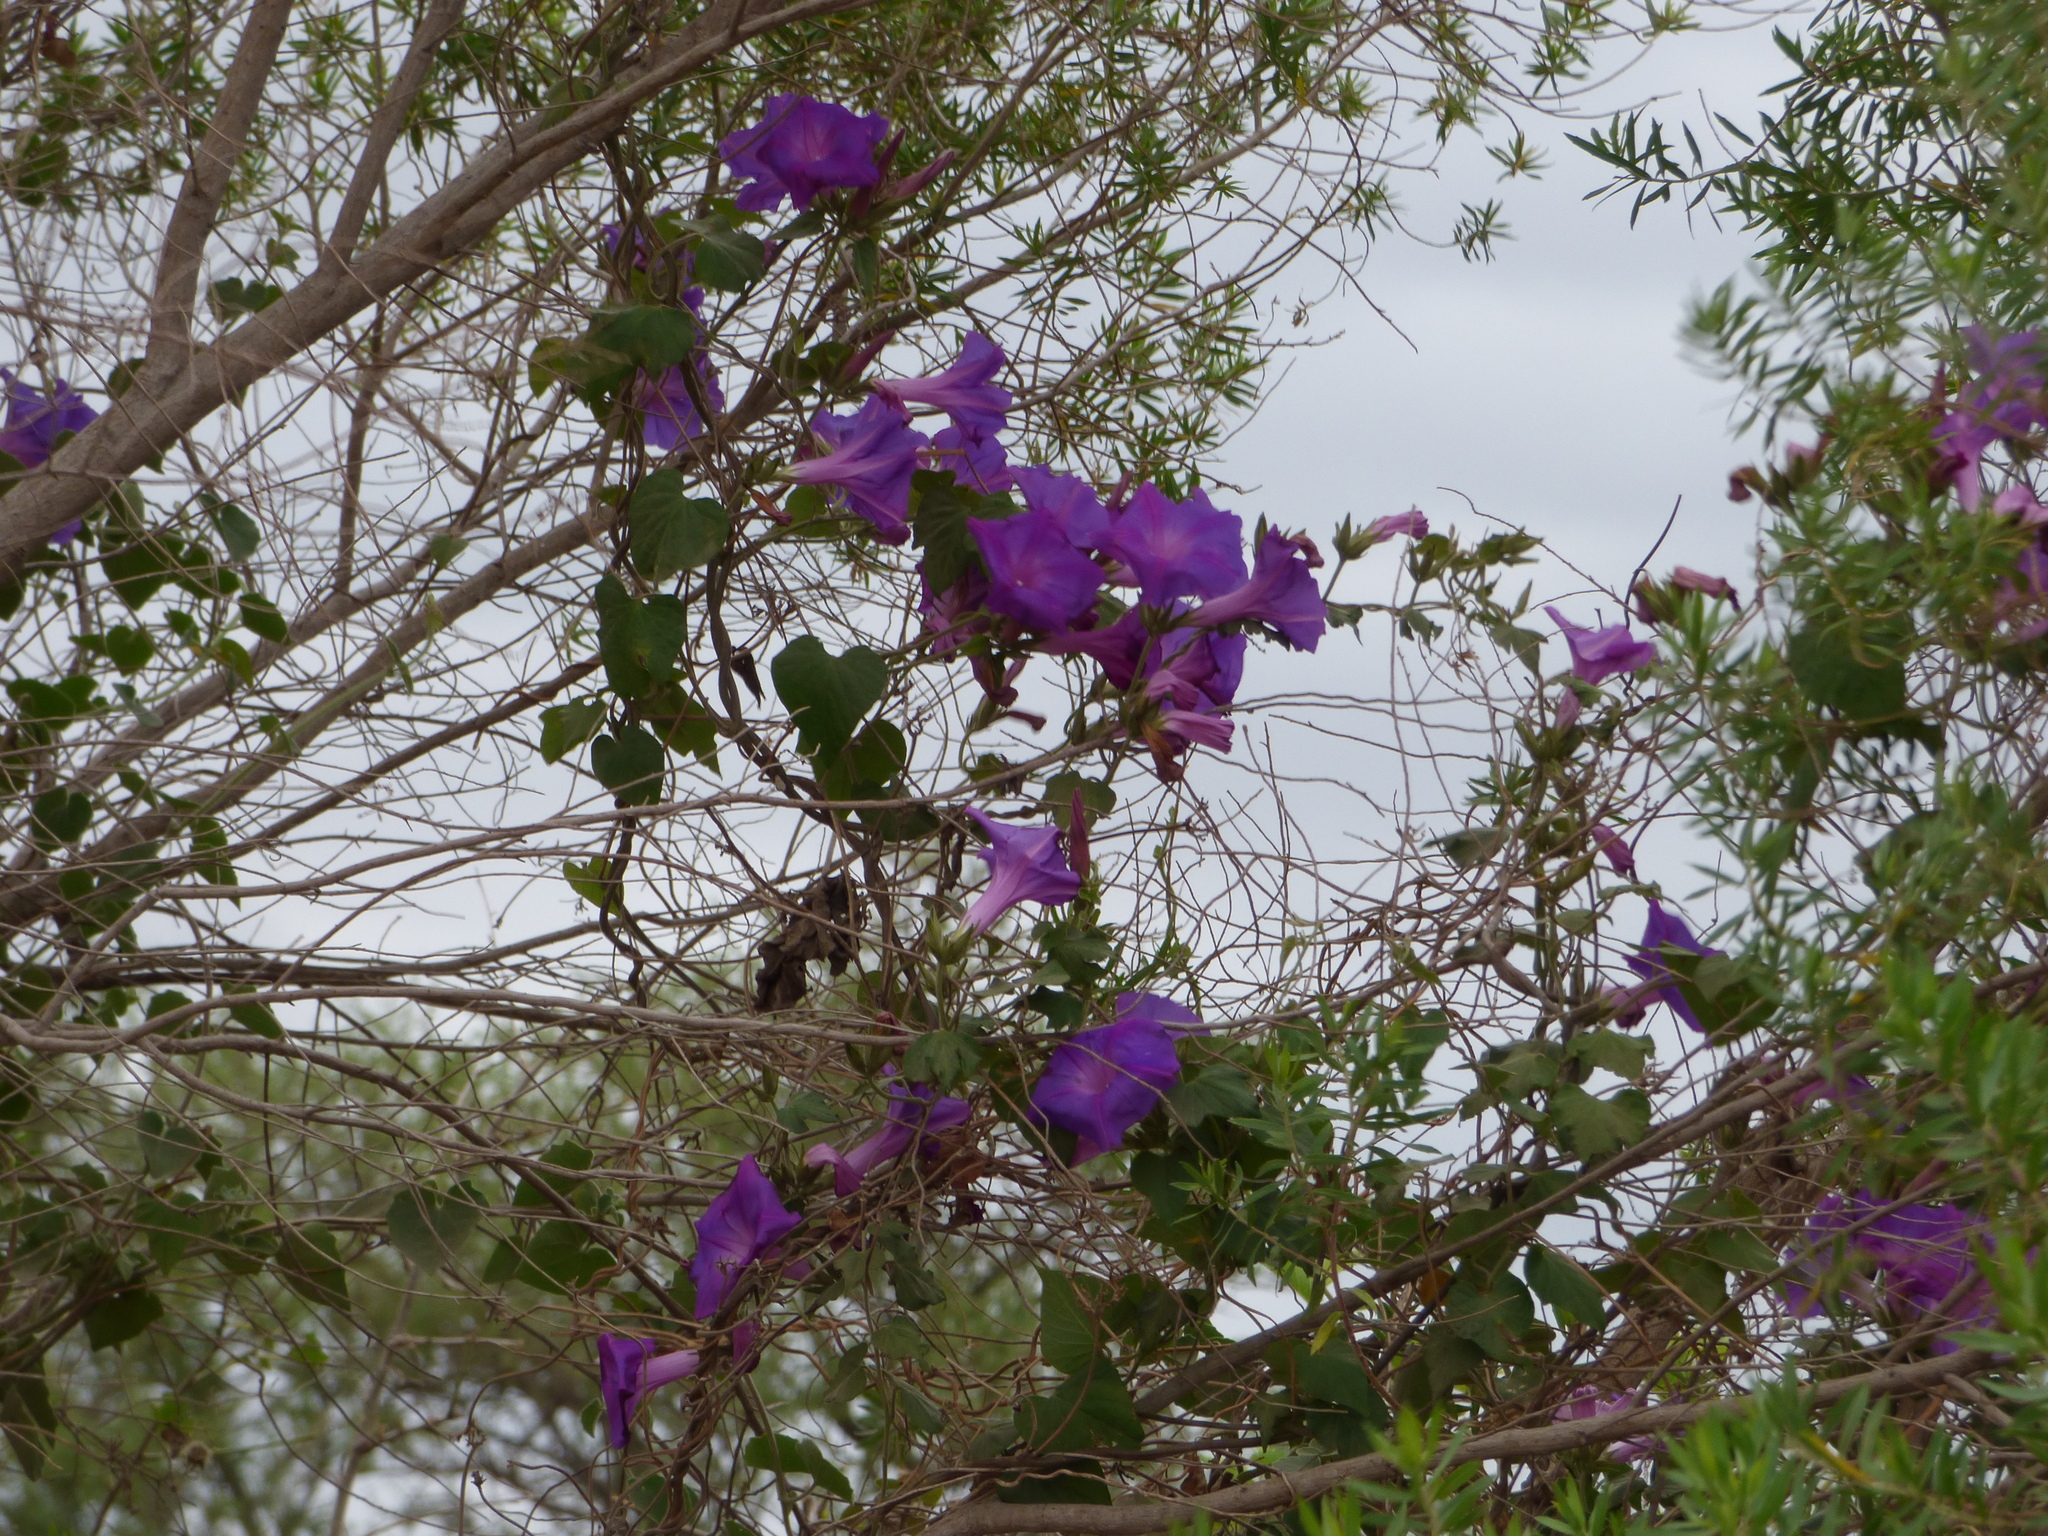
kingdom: Plantae
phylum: Tracheophyta
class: Magnoliopsida
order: Solanales
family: Convolvulaceae
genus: Ipomoea
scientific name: Ipomoea indica
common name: Blue dawnflower
